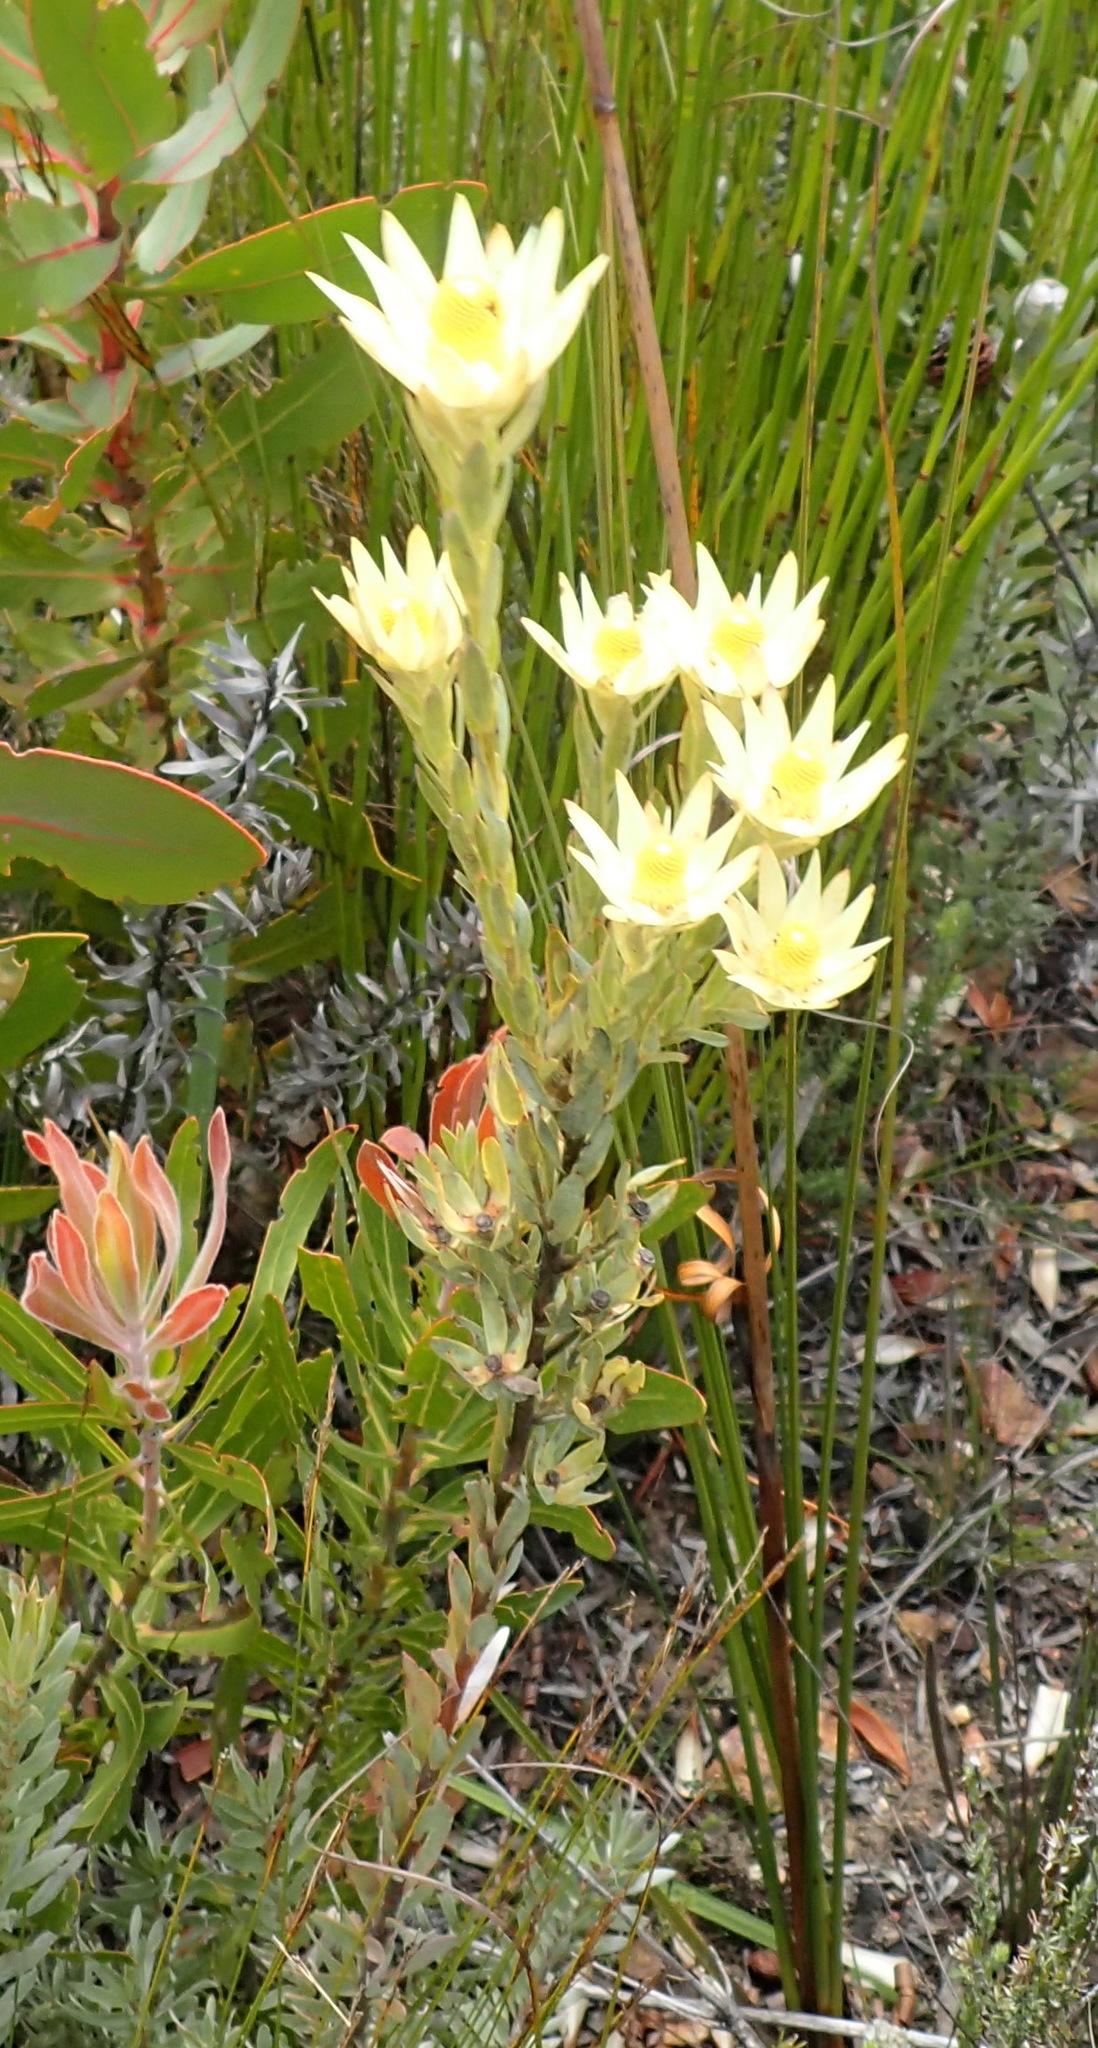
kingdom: Plantae
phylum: Tracheophyta
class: Magnoliopsida
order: Proteales
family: Proteaceae
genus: Leucadendron
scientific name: Leucadendron uliginosum
